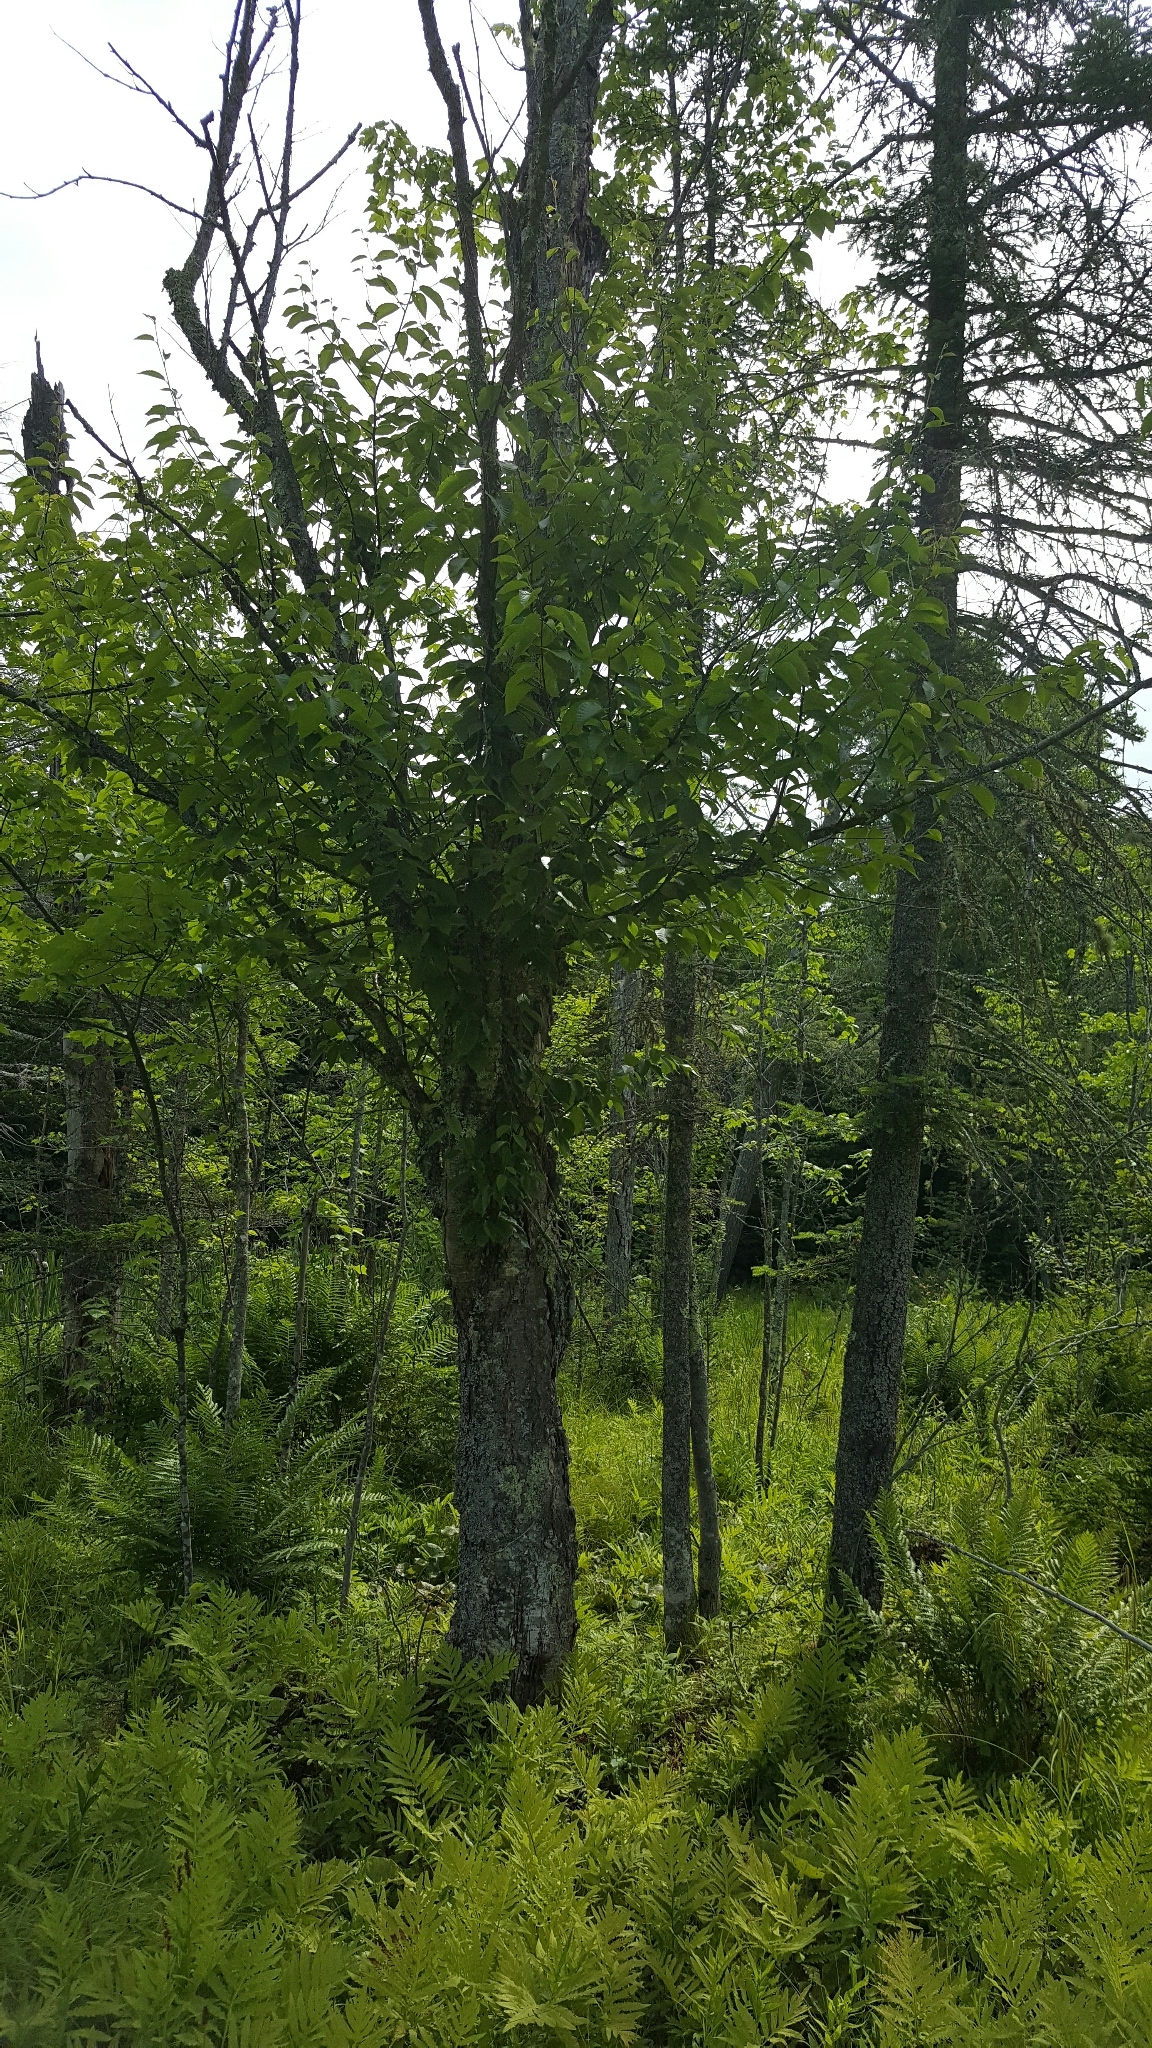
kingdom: Plantae
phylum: Tracheophyta
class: Magnoliopsida
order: Fagales
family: Betulaceae
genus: Betula
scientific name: Betula alleghaniensis
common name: Yellow birch
